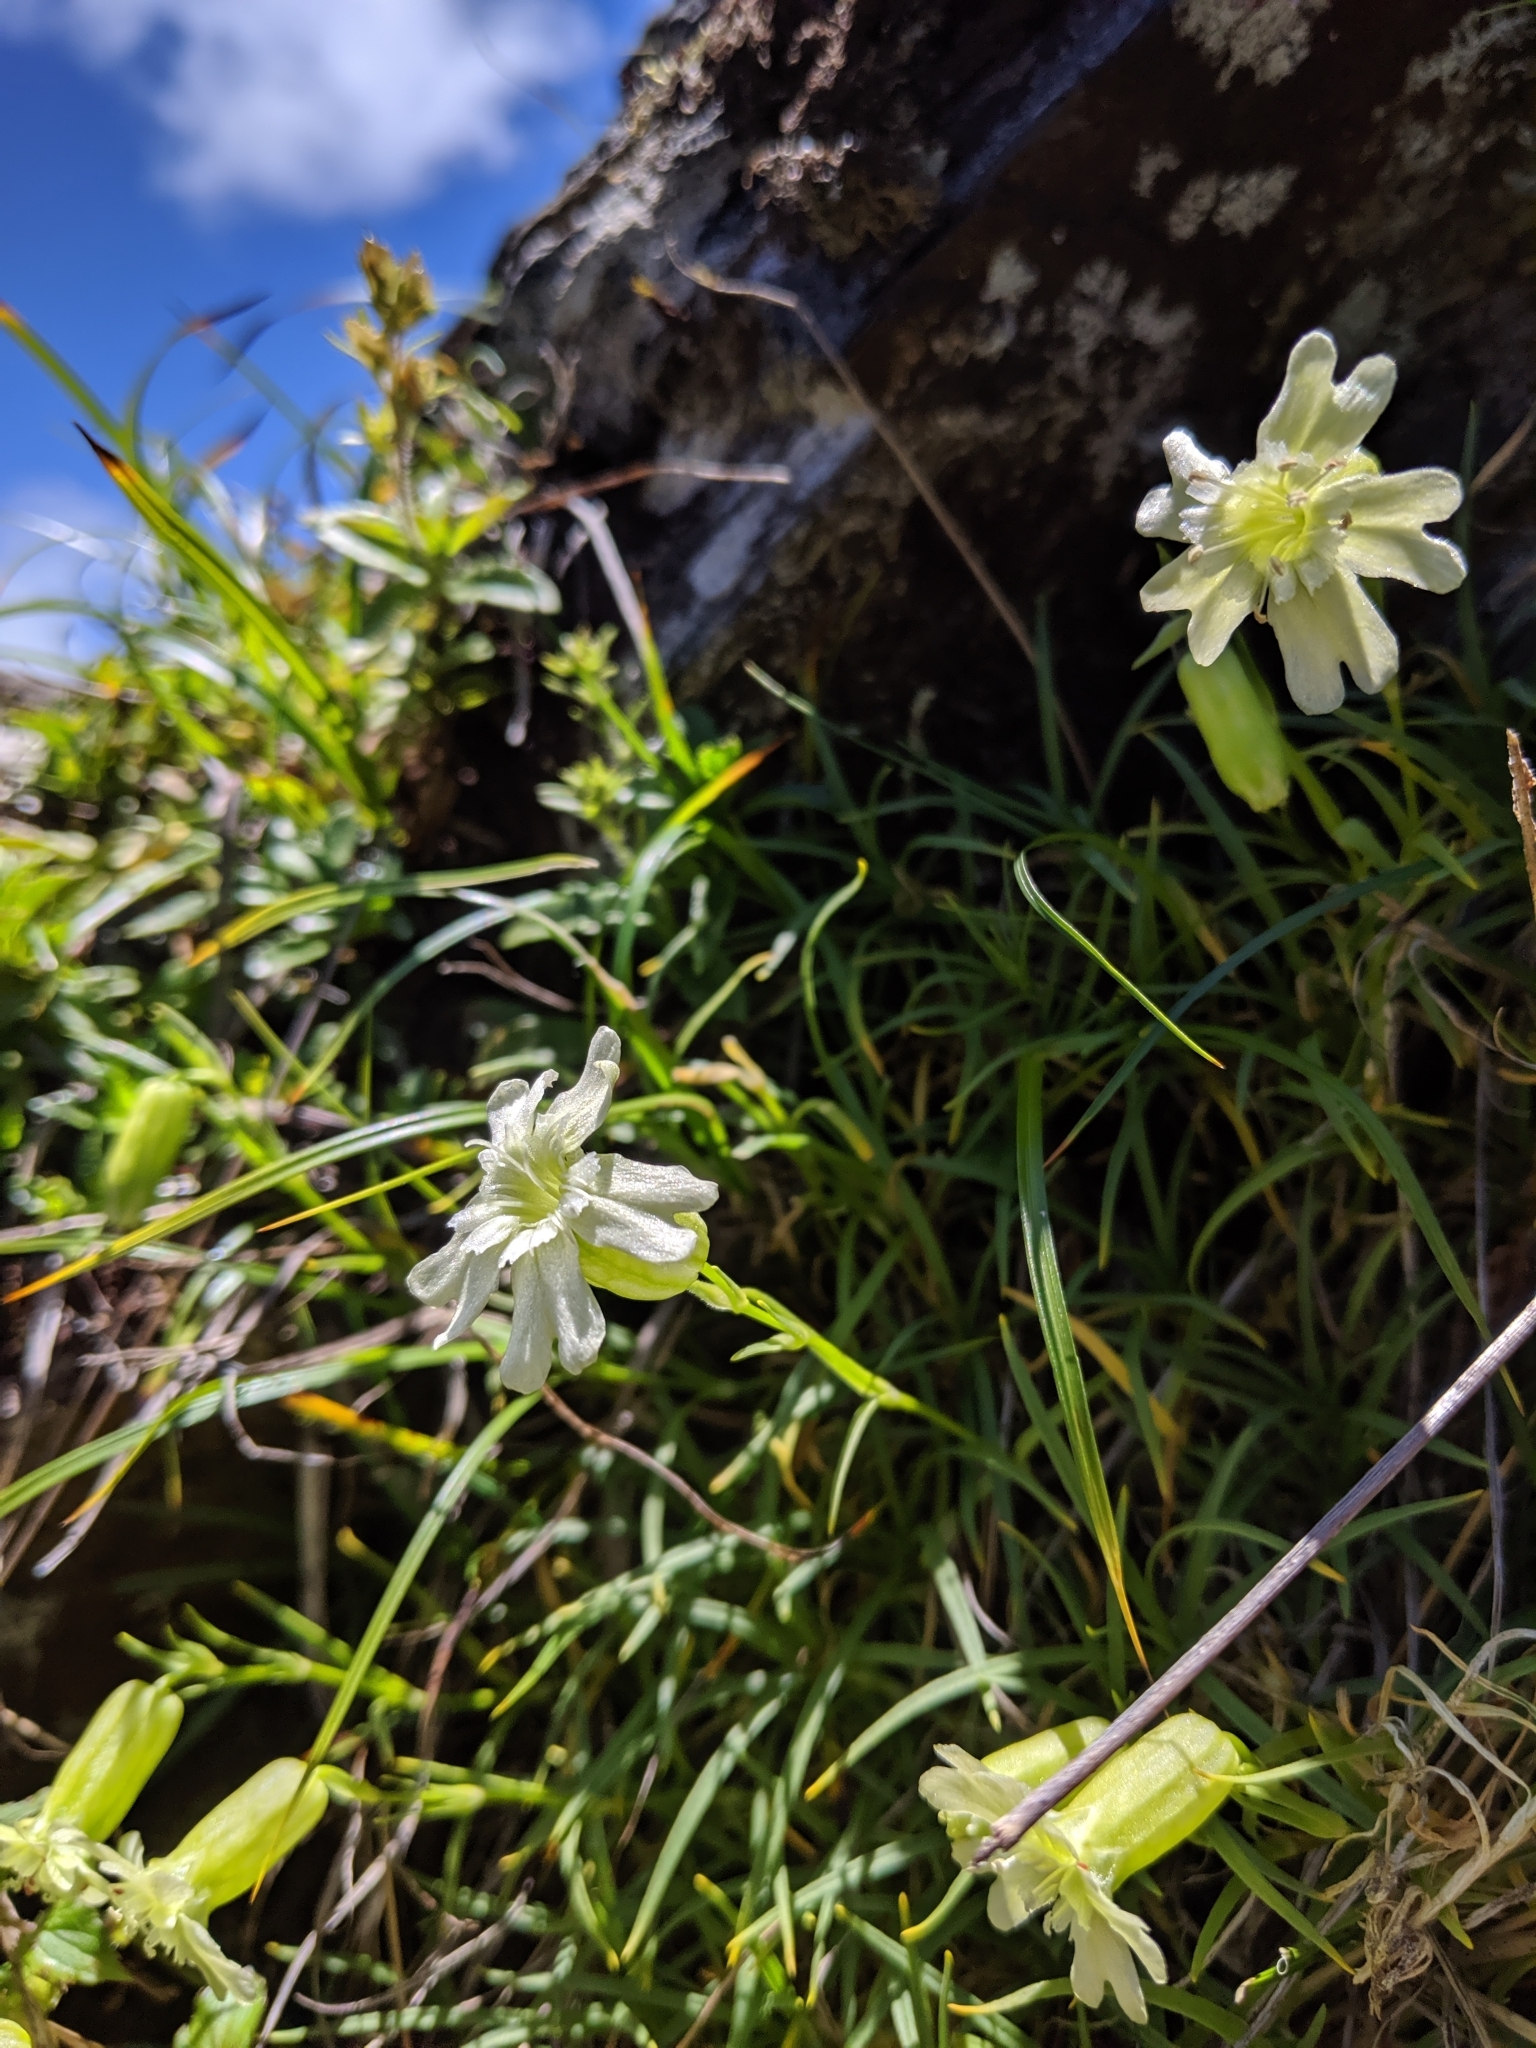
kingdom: Plantae
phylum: Tracheophyta
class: Magnoliopsida
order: Caryophyllales
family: Caryophyllaceae
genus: Silene
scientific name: Silene morrisonmontana
